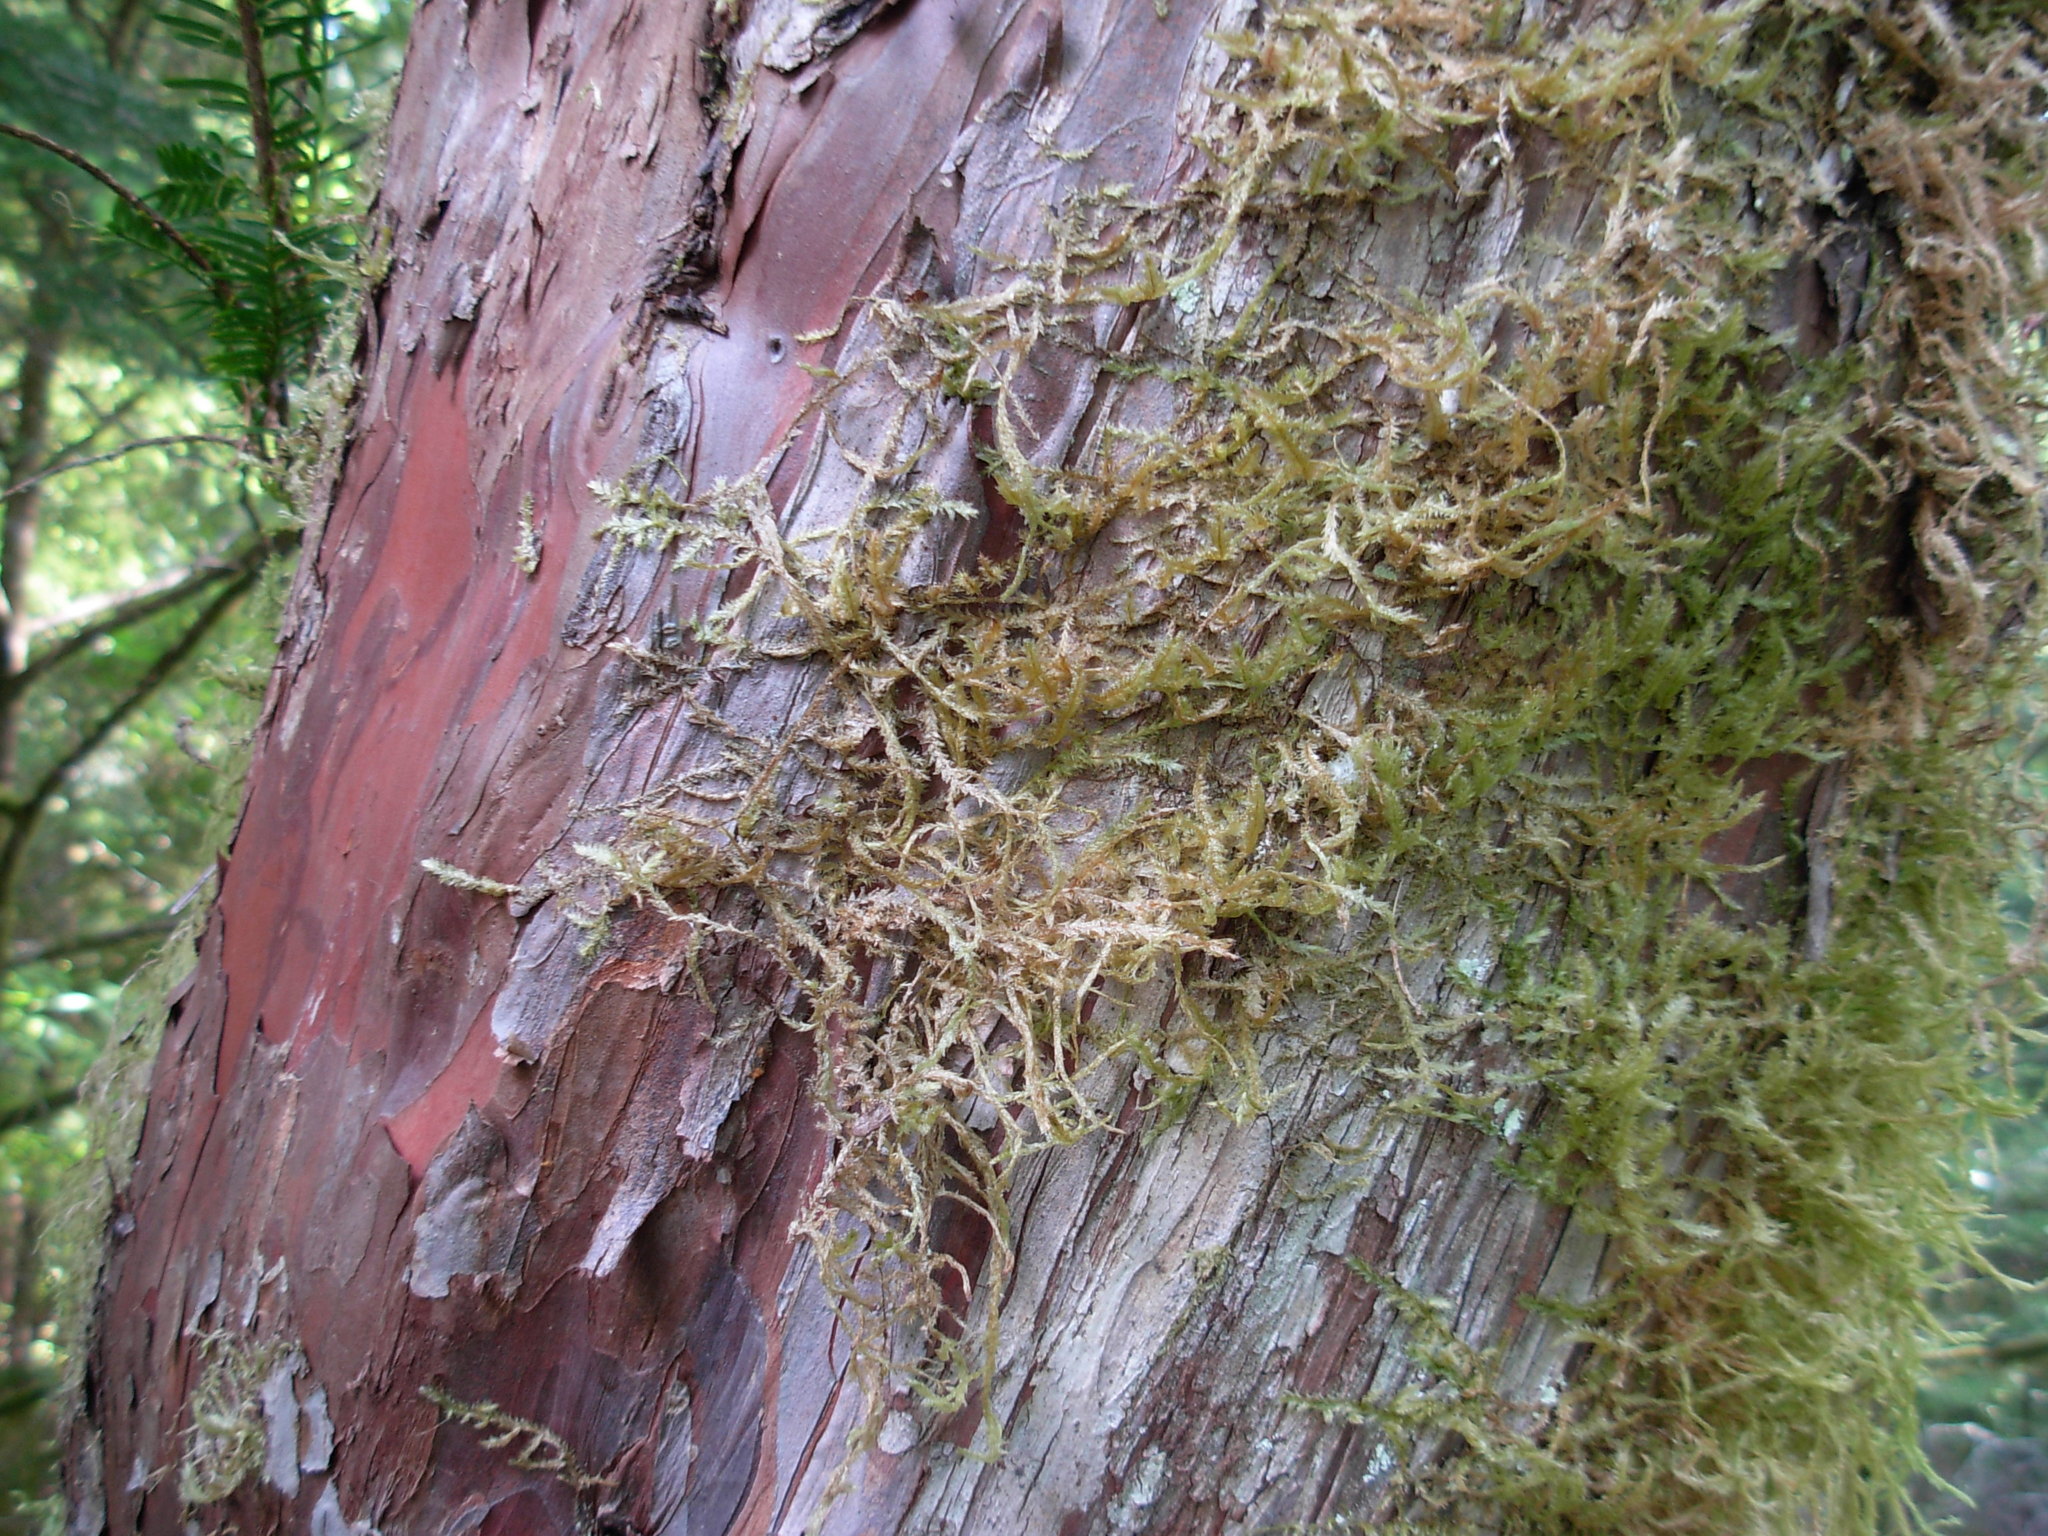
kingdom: Plantae
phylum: Tracheophyta
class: Pinopsida
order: Pinales
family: Taxaceae
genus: Taxus
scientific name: Taxus brevifolia
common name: Pacific yew
